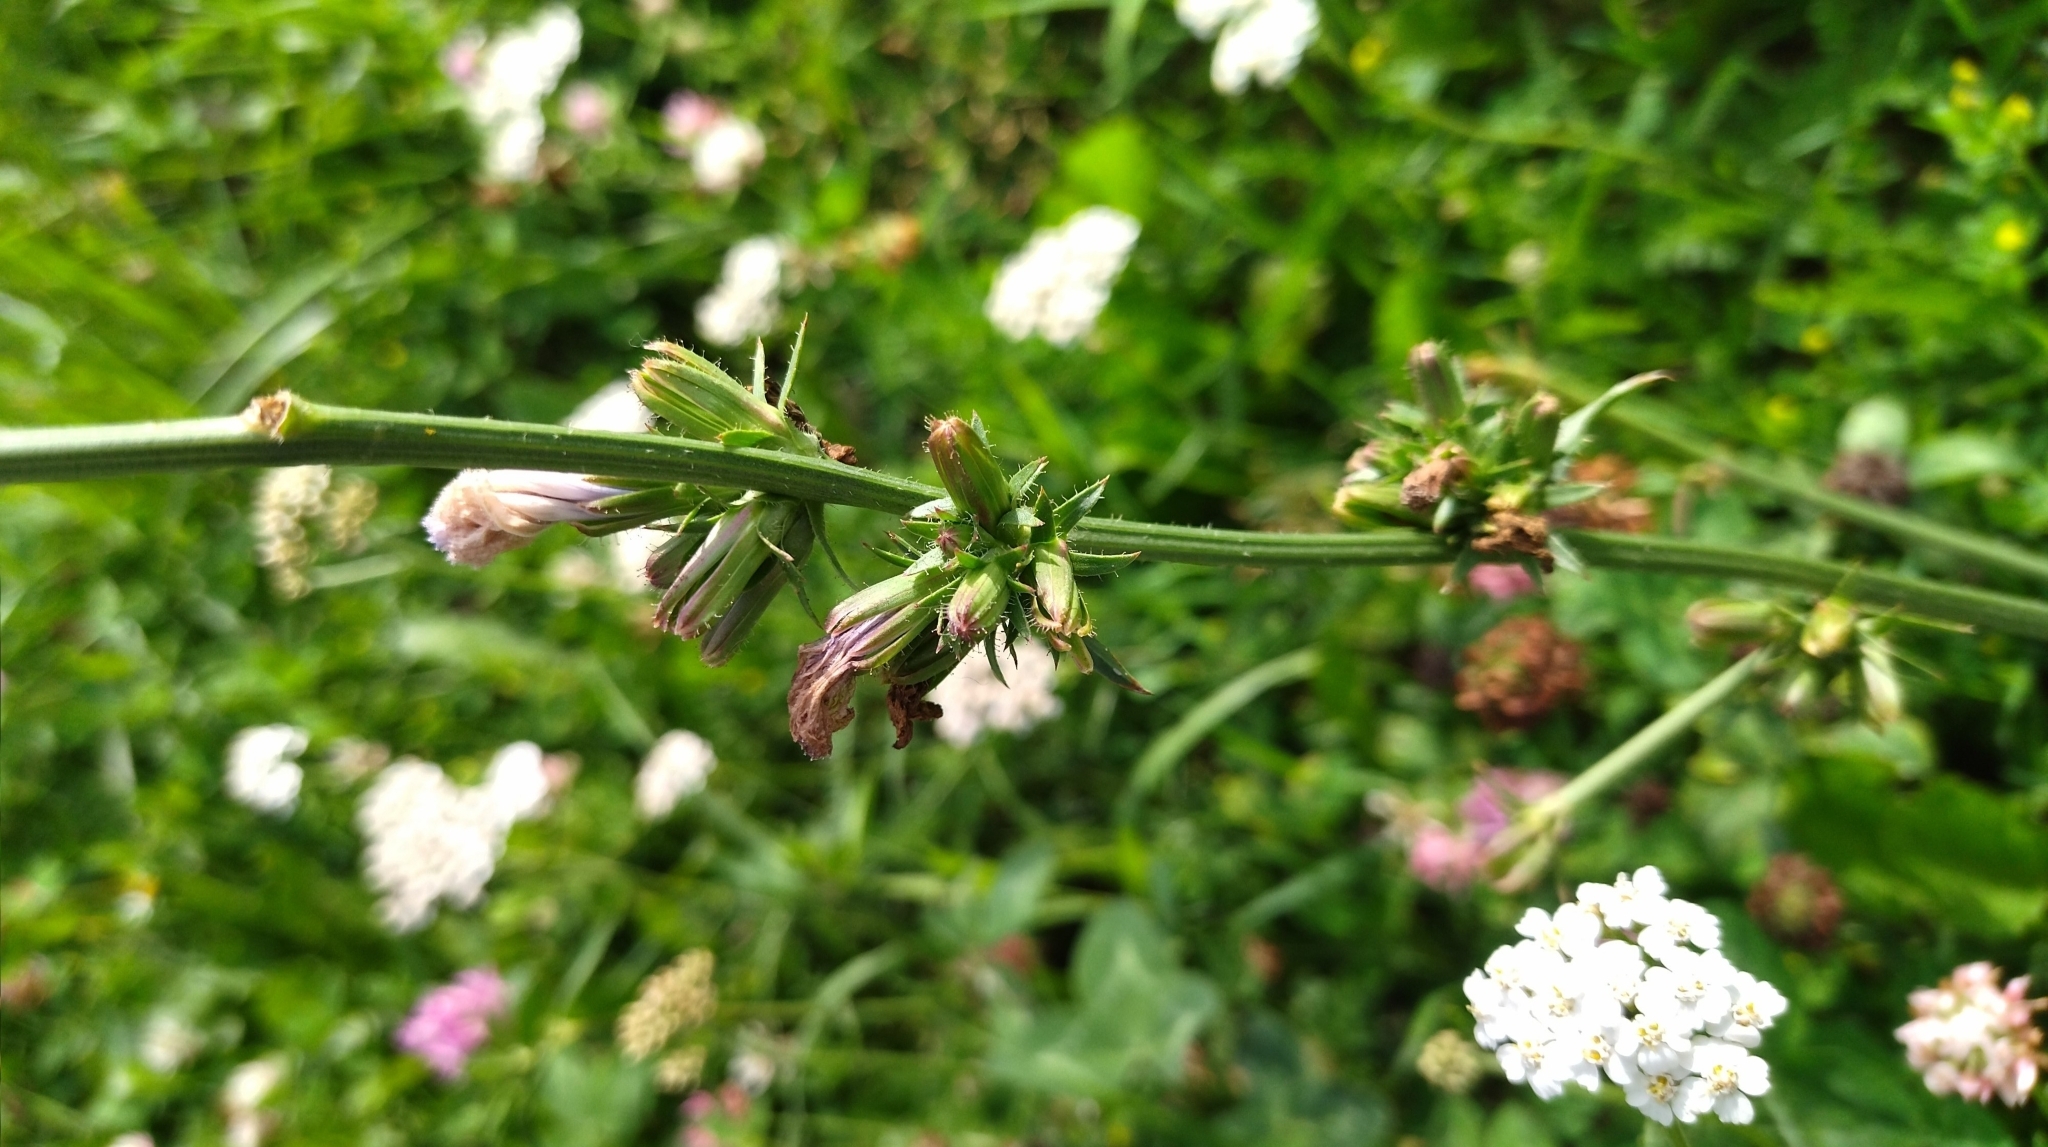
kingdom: Plantae
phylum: Tracheophyta
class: Magnoliopsida
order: Asterales
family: Asteraceae
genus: Cichorium
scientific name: Cichorium intybus
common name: Chicory
